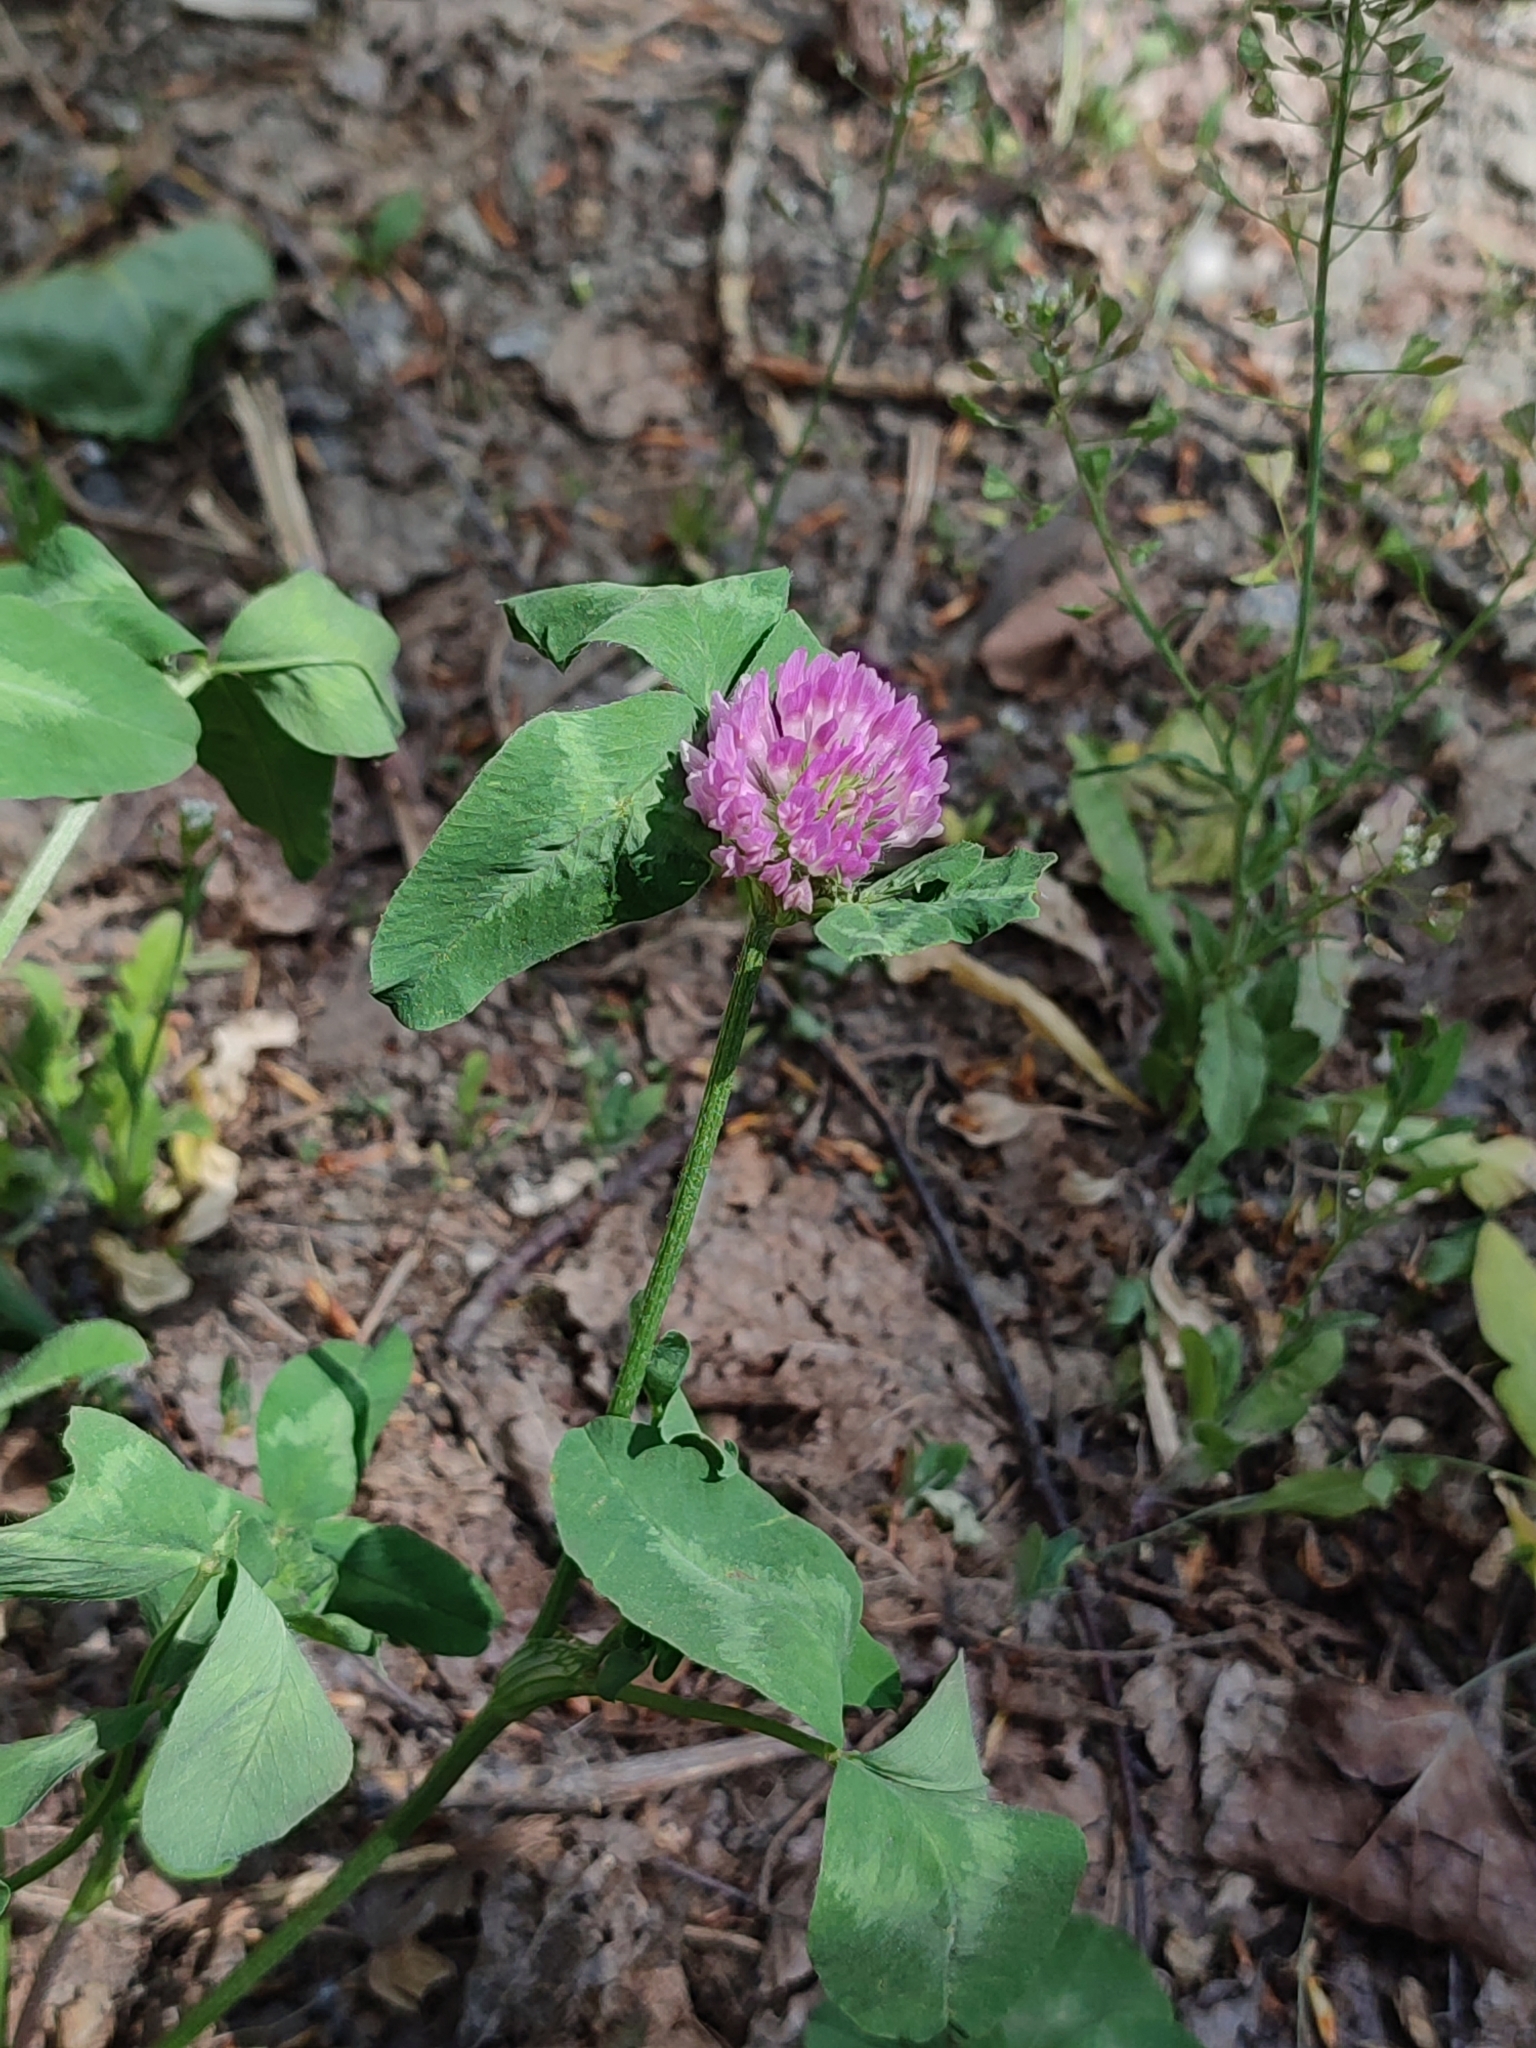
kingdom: Plantae
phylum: Tracheophyta
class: Magnoliopsida
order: Fabales
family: Fabaceae
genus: Trifolium
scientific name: Trifolium pratense
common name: Red clover
